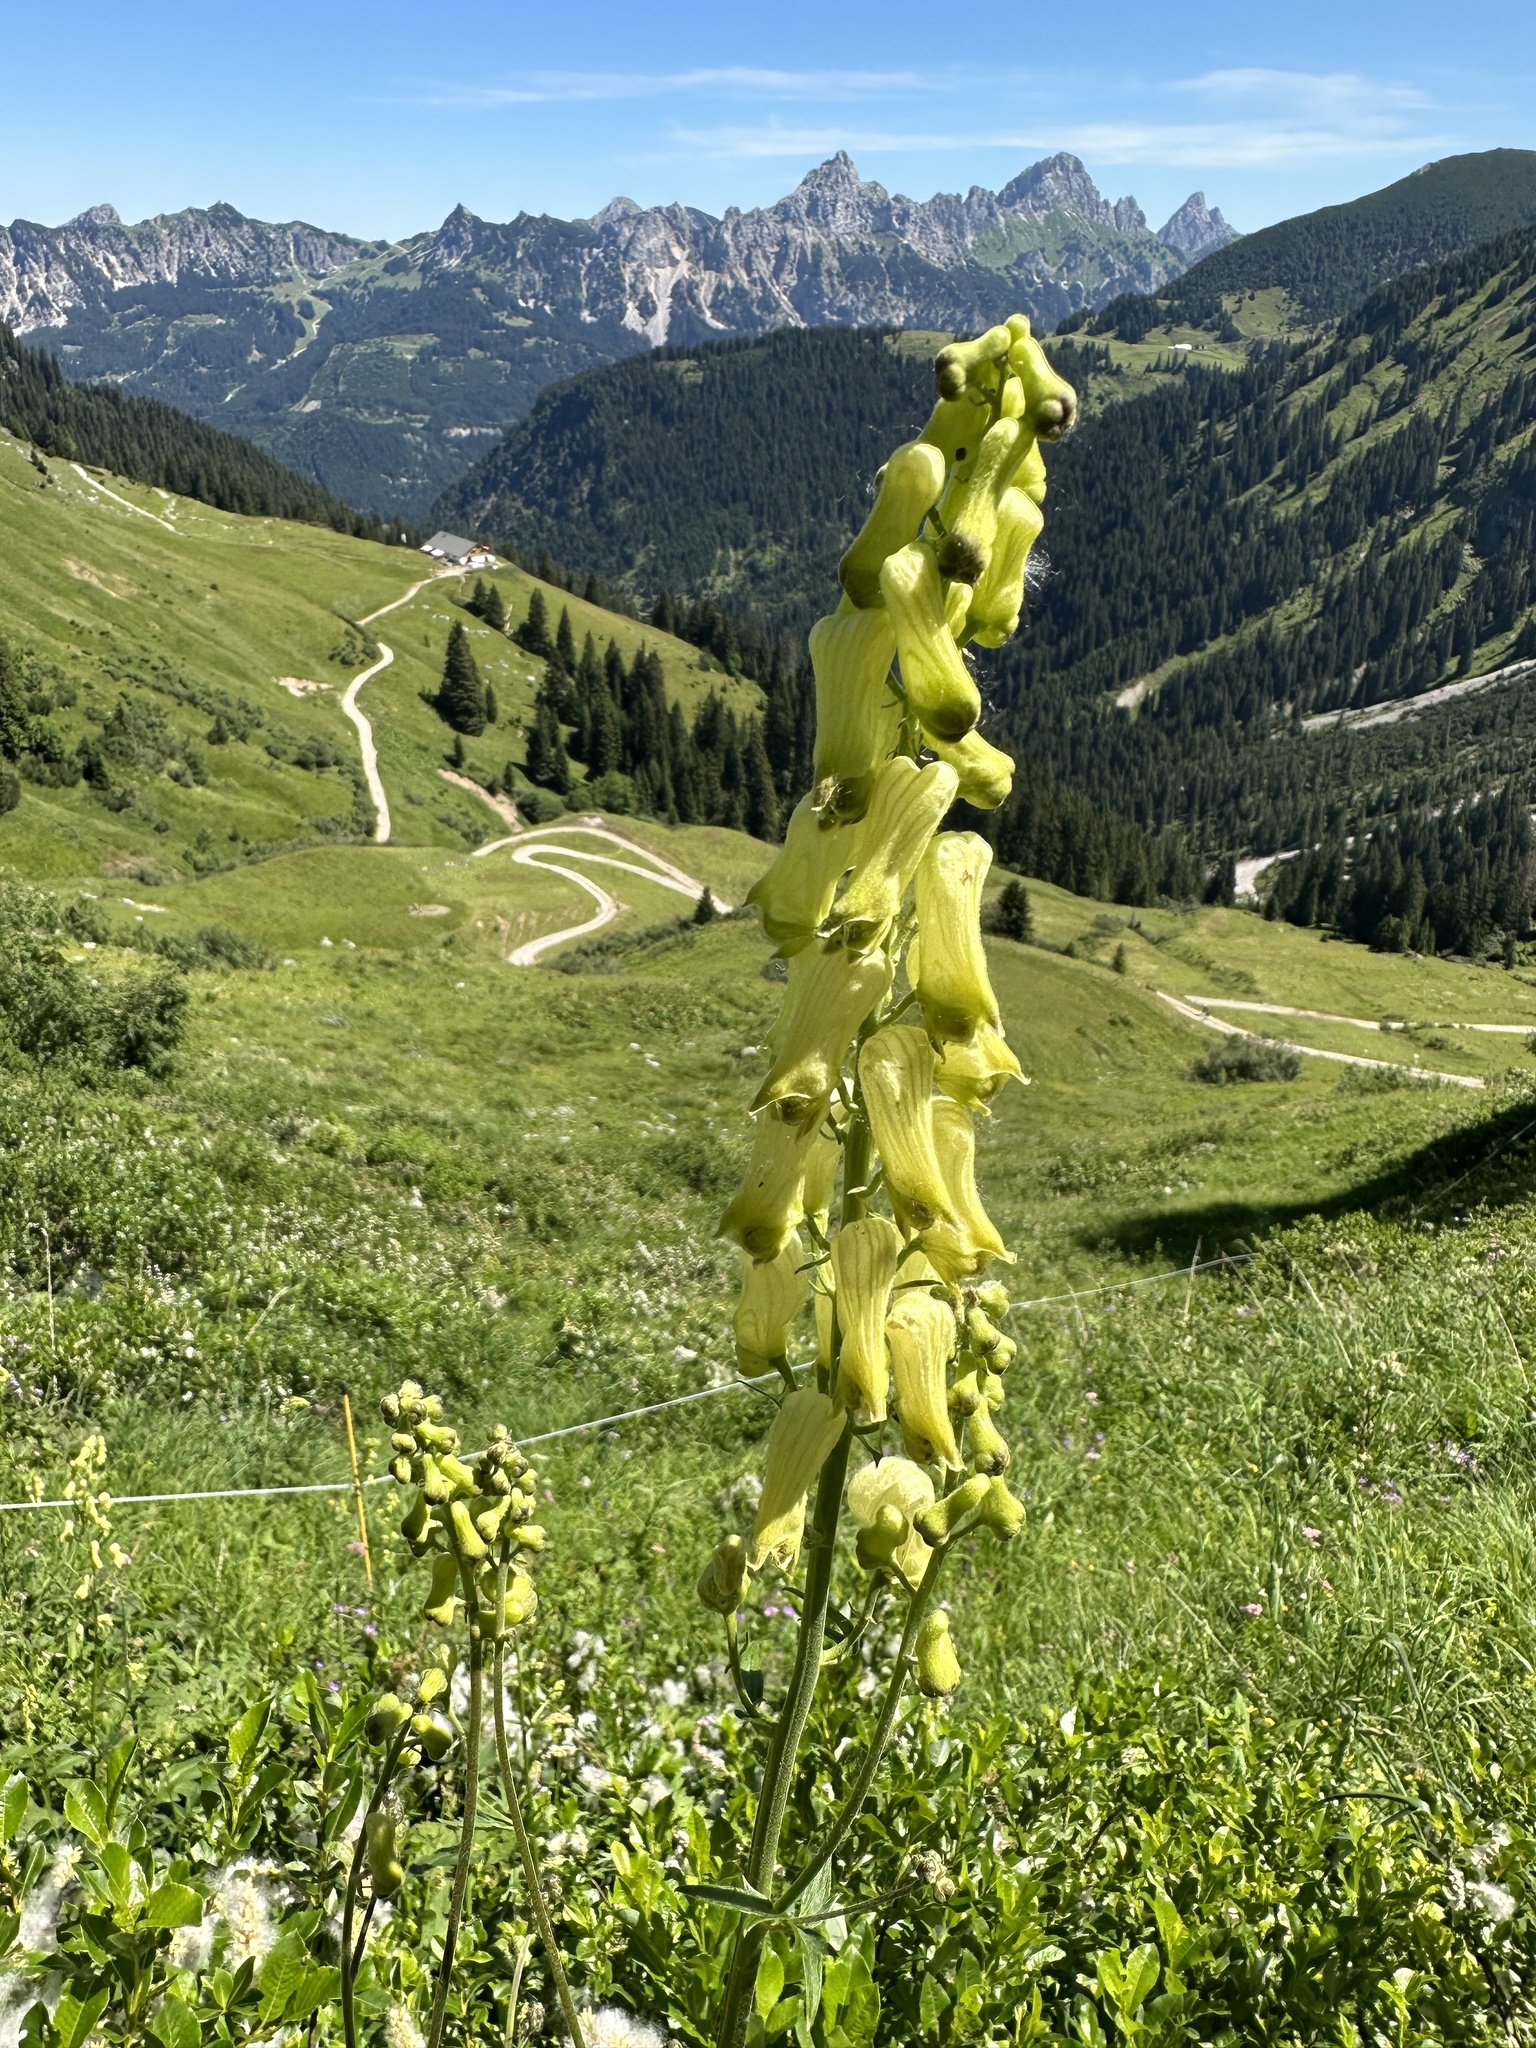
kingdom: Plantae
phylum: Tracheophyta
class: Magnoliopsida
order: Ranunculales
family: Ranunculaceae
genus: Aconitum
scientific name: Aconitum lycoctonum
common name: Wolf's-bane
